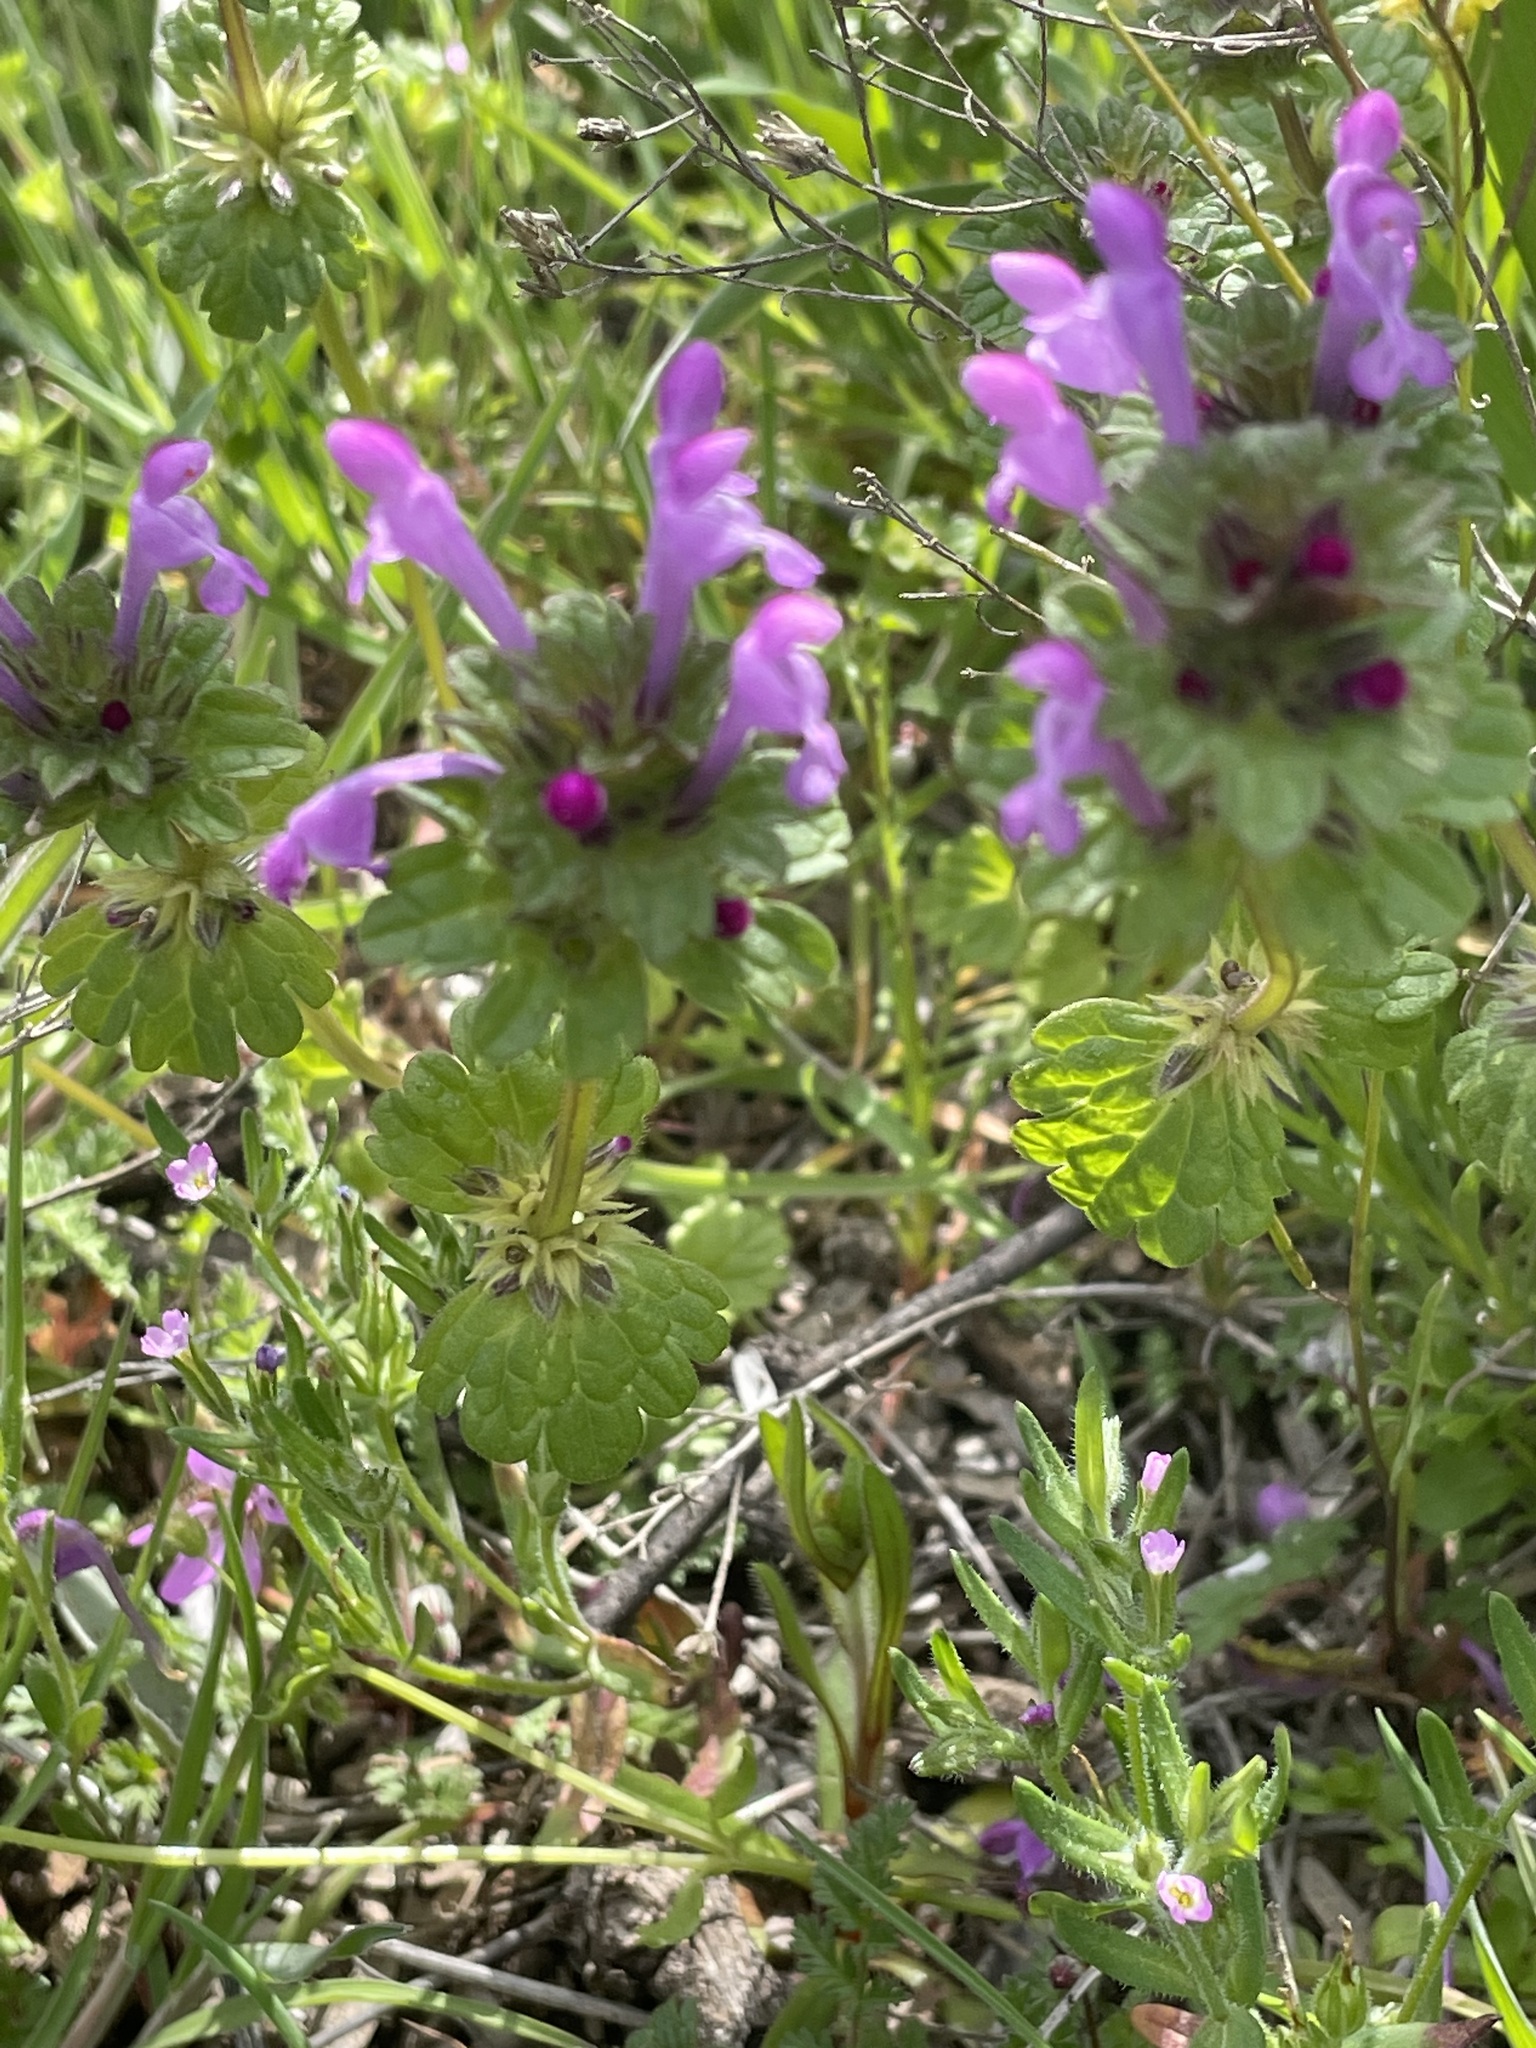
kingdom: Plantae
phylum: Tracheophyta
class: Magnoliopsida
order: Lamiales
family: Lamiaceae
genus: Lamium
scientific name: Lamium amplexicaule
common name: Henbit dead-nettle
